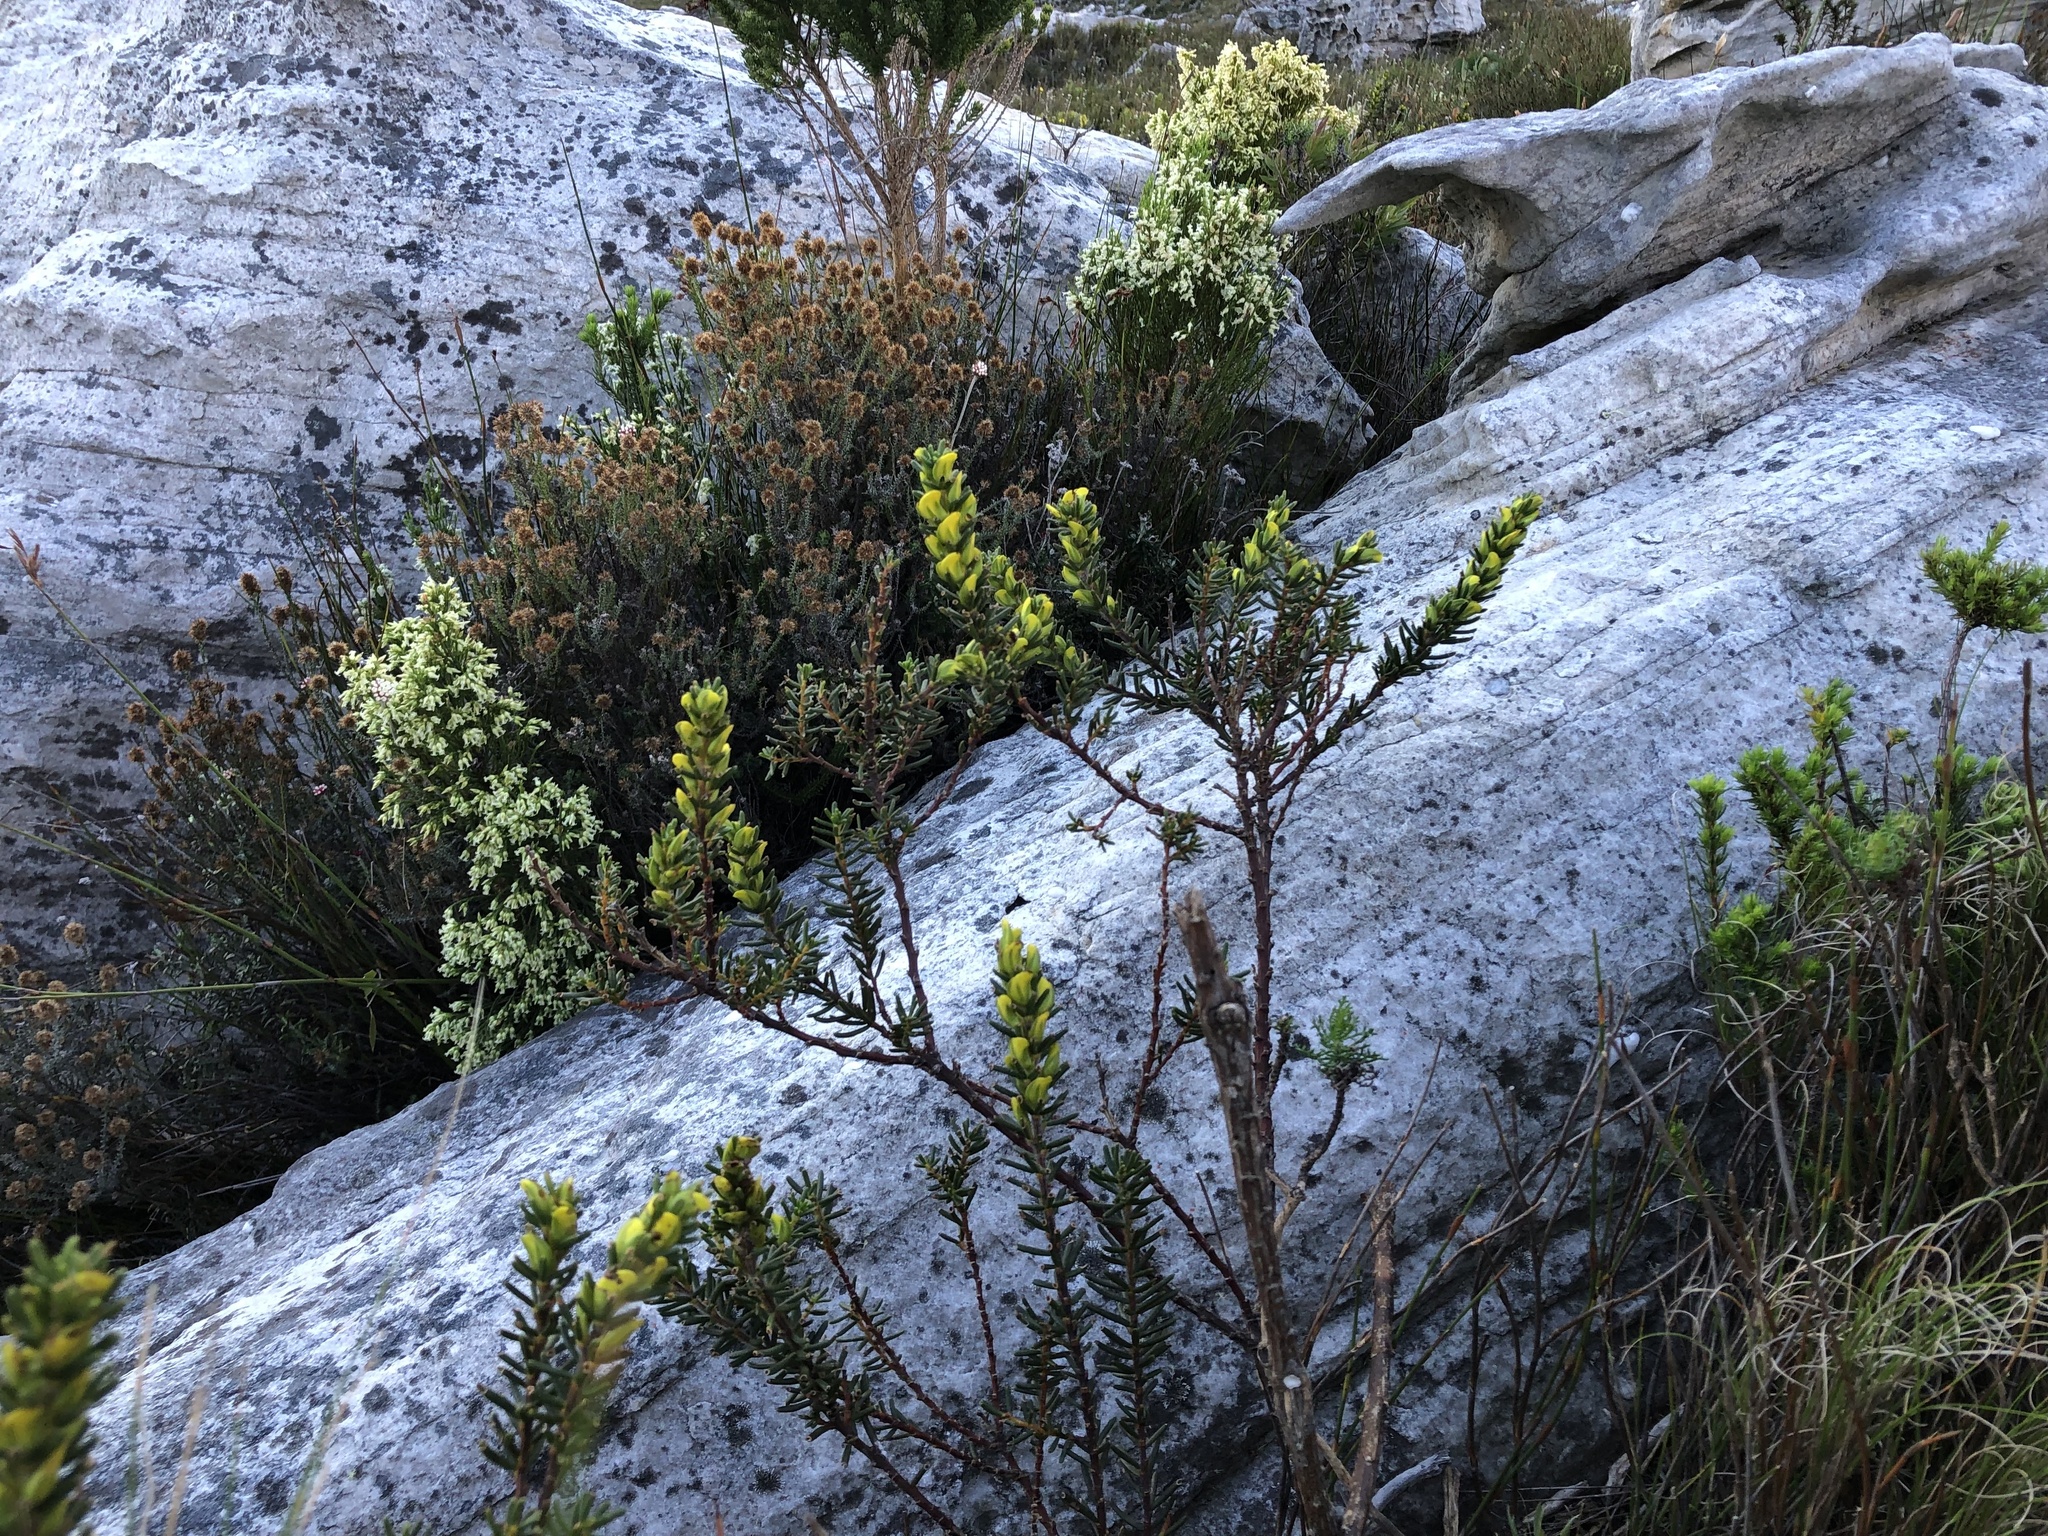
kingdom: Plantae
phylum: Tracheophyta
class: Magnoliopsida
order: Fabales
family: Fabaceae
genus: Cyclopia
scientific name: Cyclopia galioides
